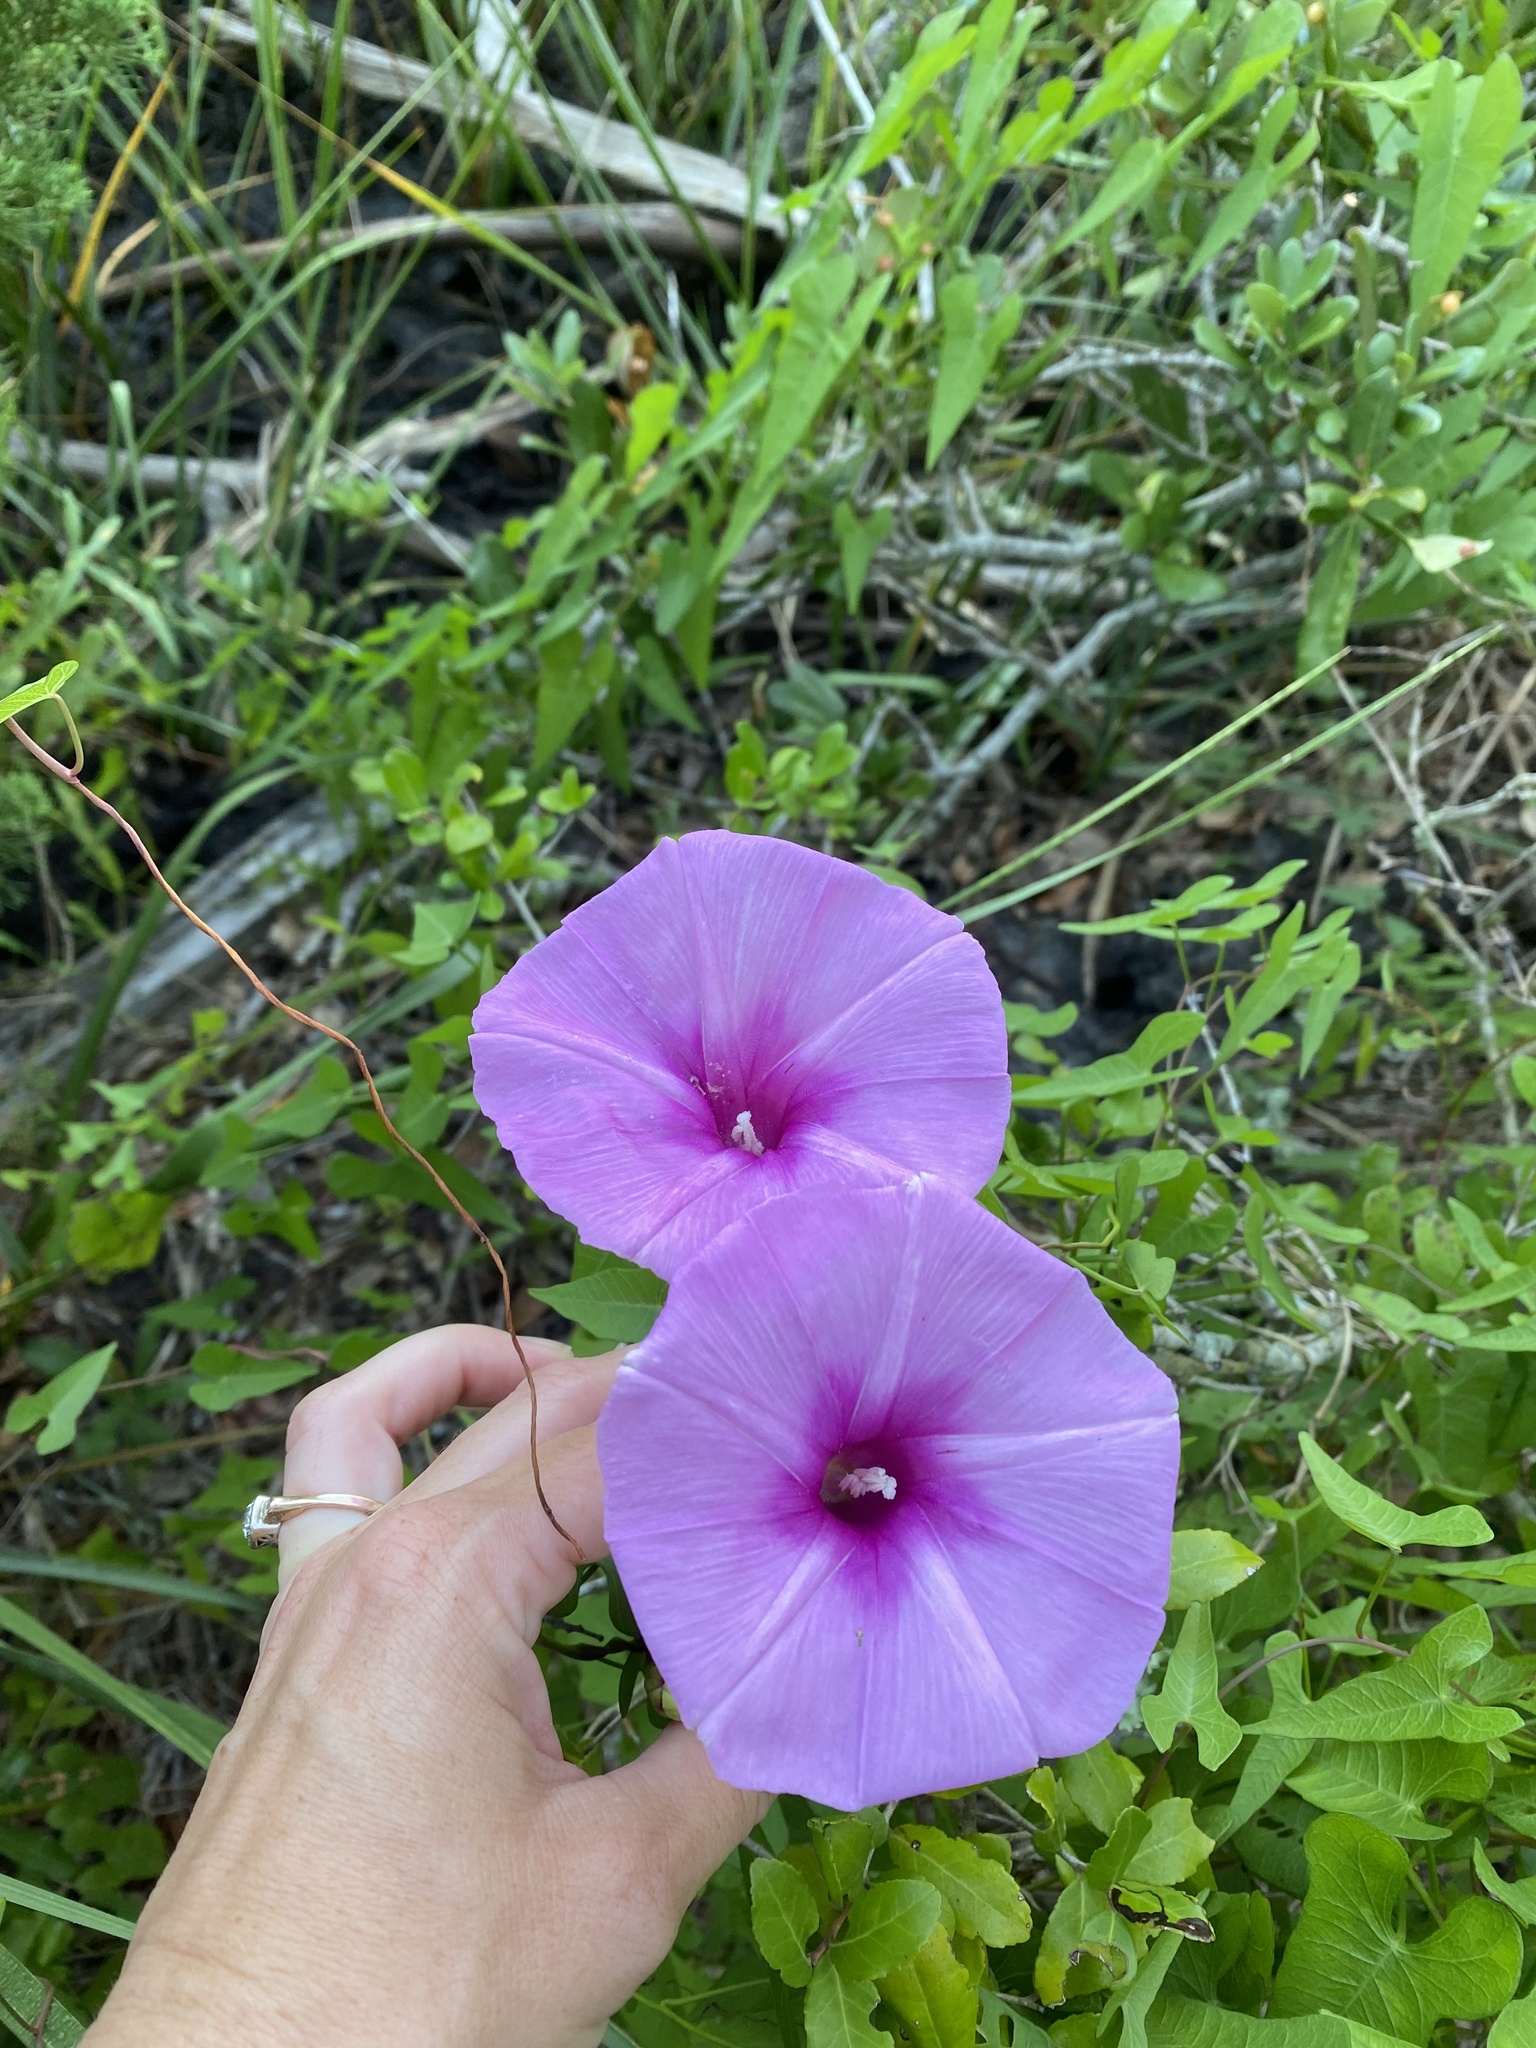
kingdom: Plantae
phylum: Tracheophyta
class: Magnoliopsida
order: Solanales
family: Convolvulaceae
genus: Ipomoea
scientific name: Ipomoea sagittata
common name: Saltmarsh morning glory
